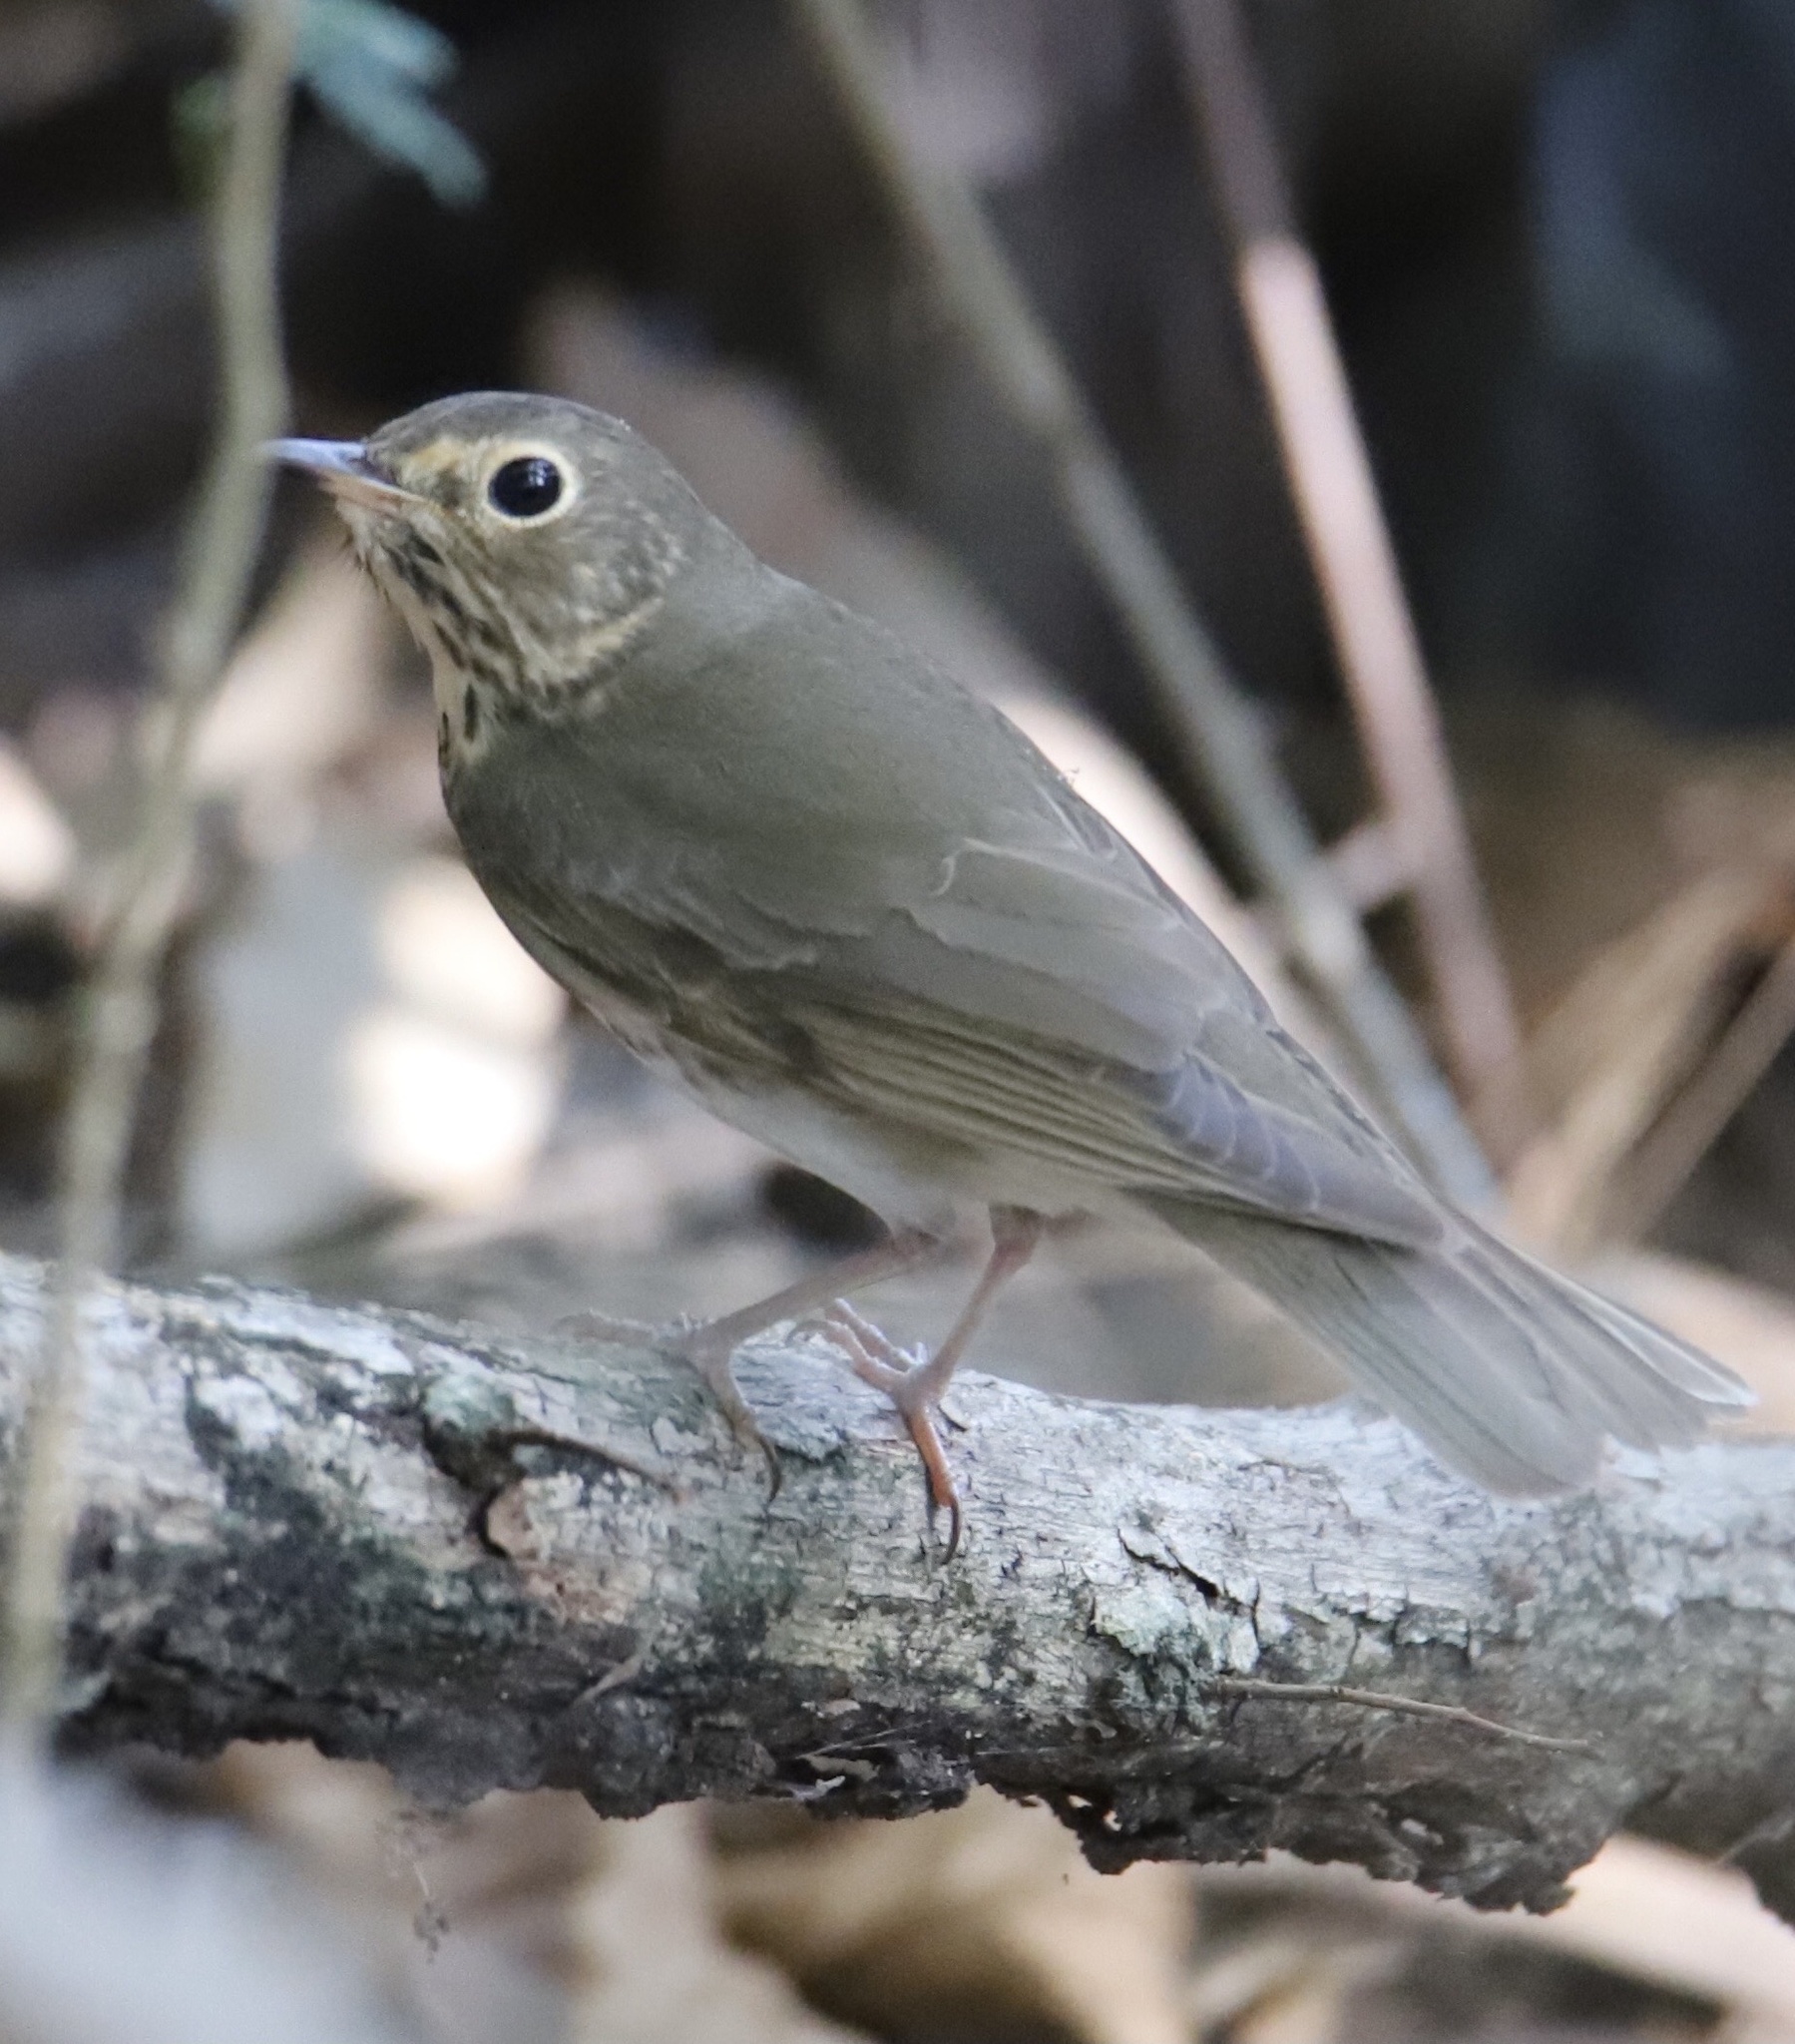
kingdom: Animalia
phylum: Chordata
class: Aves
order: Passeriformes
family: Turdidae
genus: Catharus
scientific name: Catharus ustulatus
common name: Swainson's thrush
